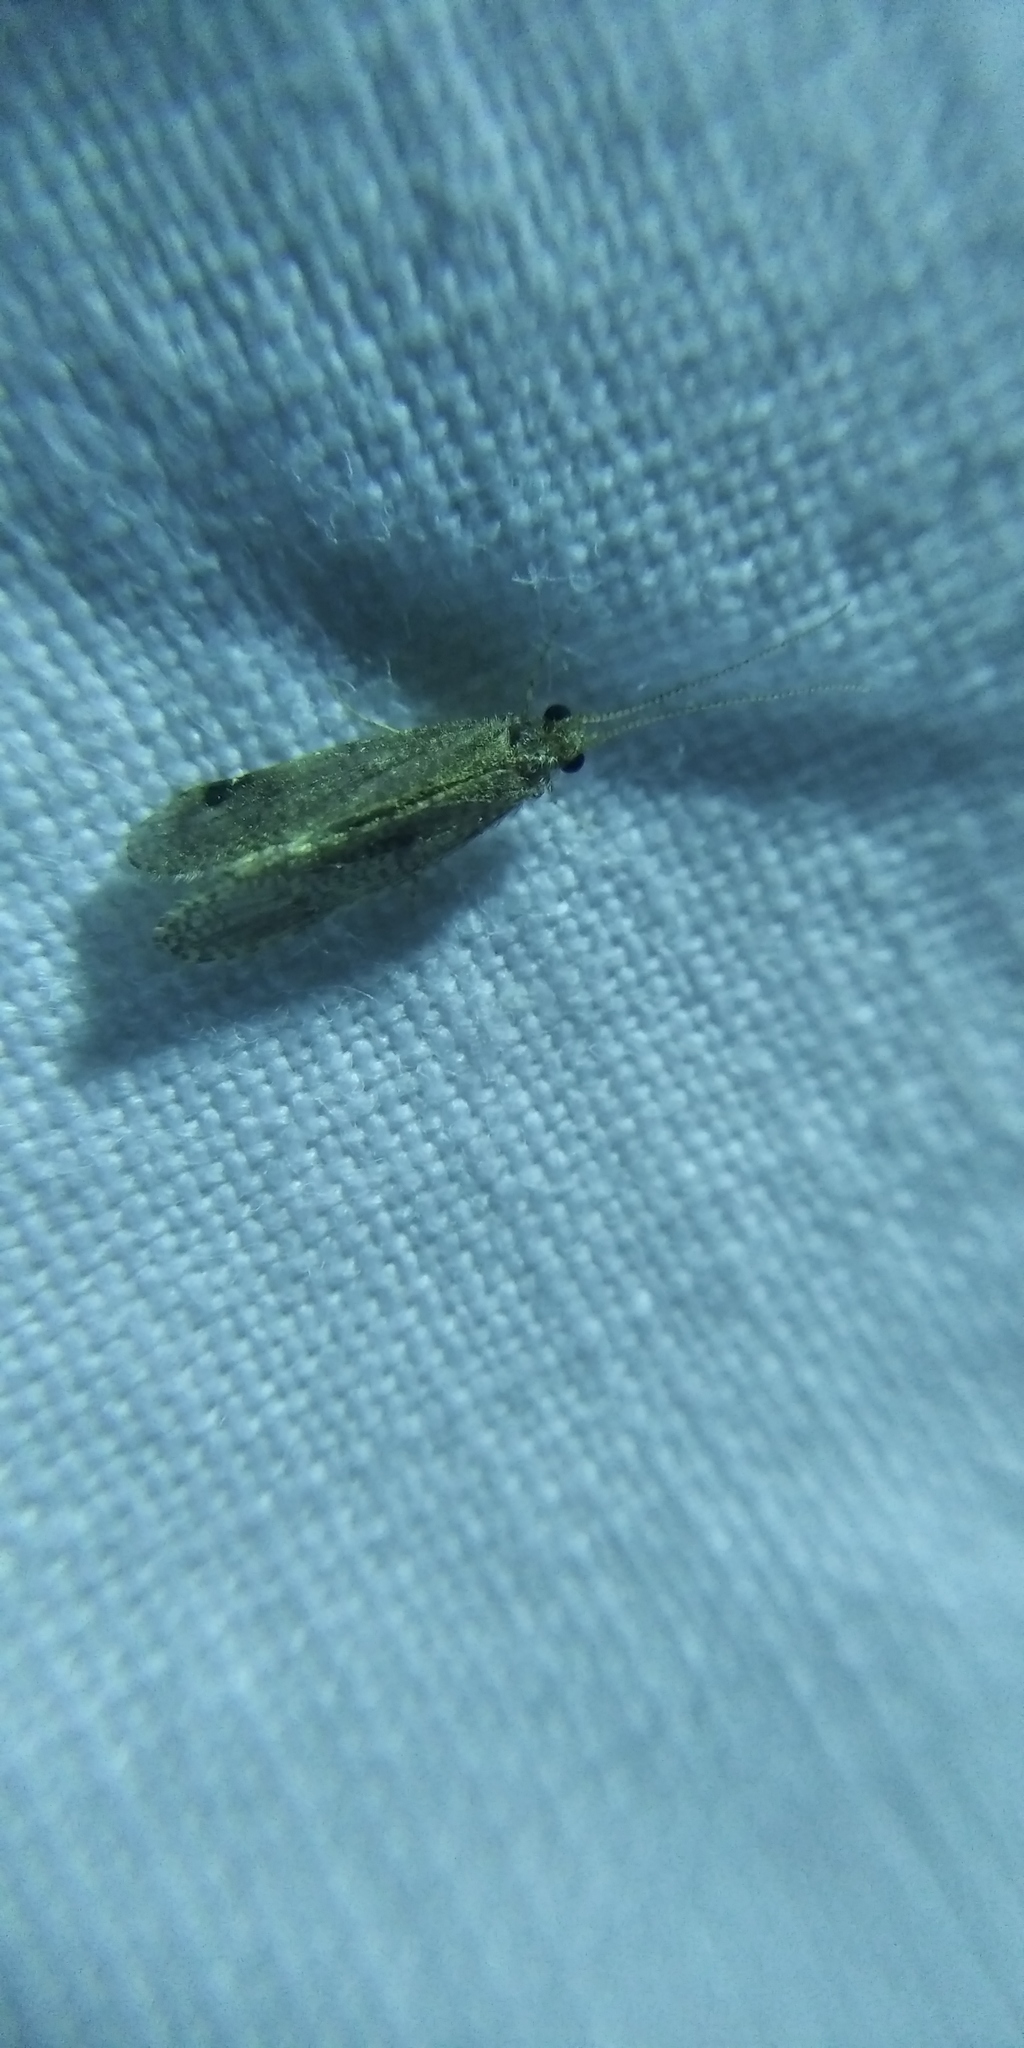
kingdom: Animalia
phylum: Arthropoda
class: Insecta
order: Trichoptera
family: Ecnomidae
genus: Ecnomus
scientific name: Ecnomus tenellus
